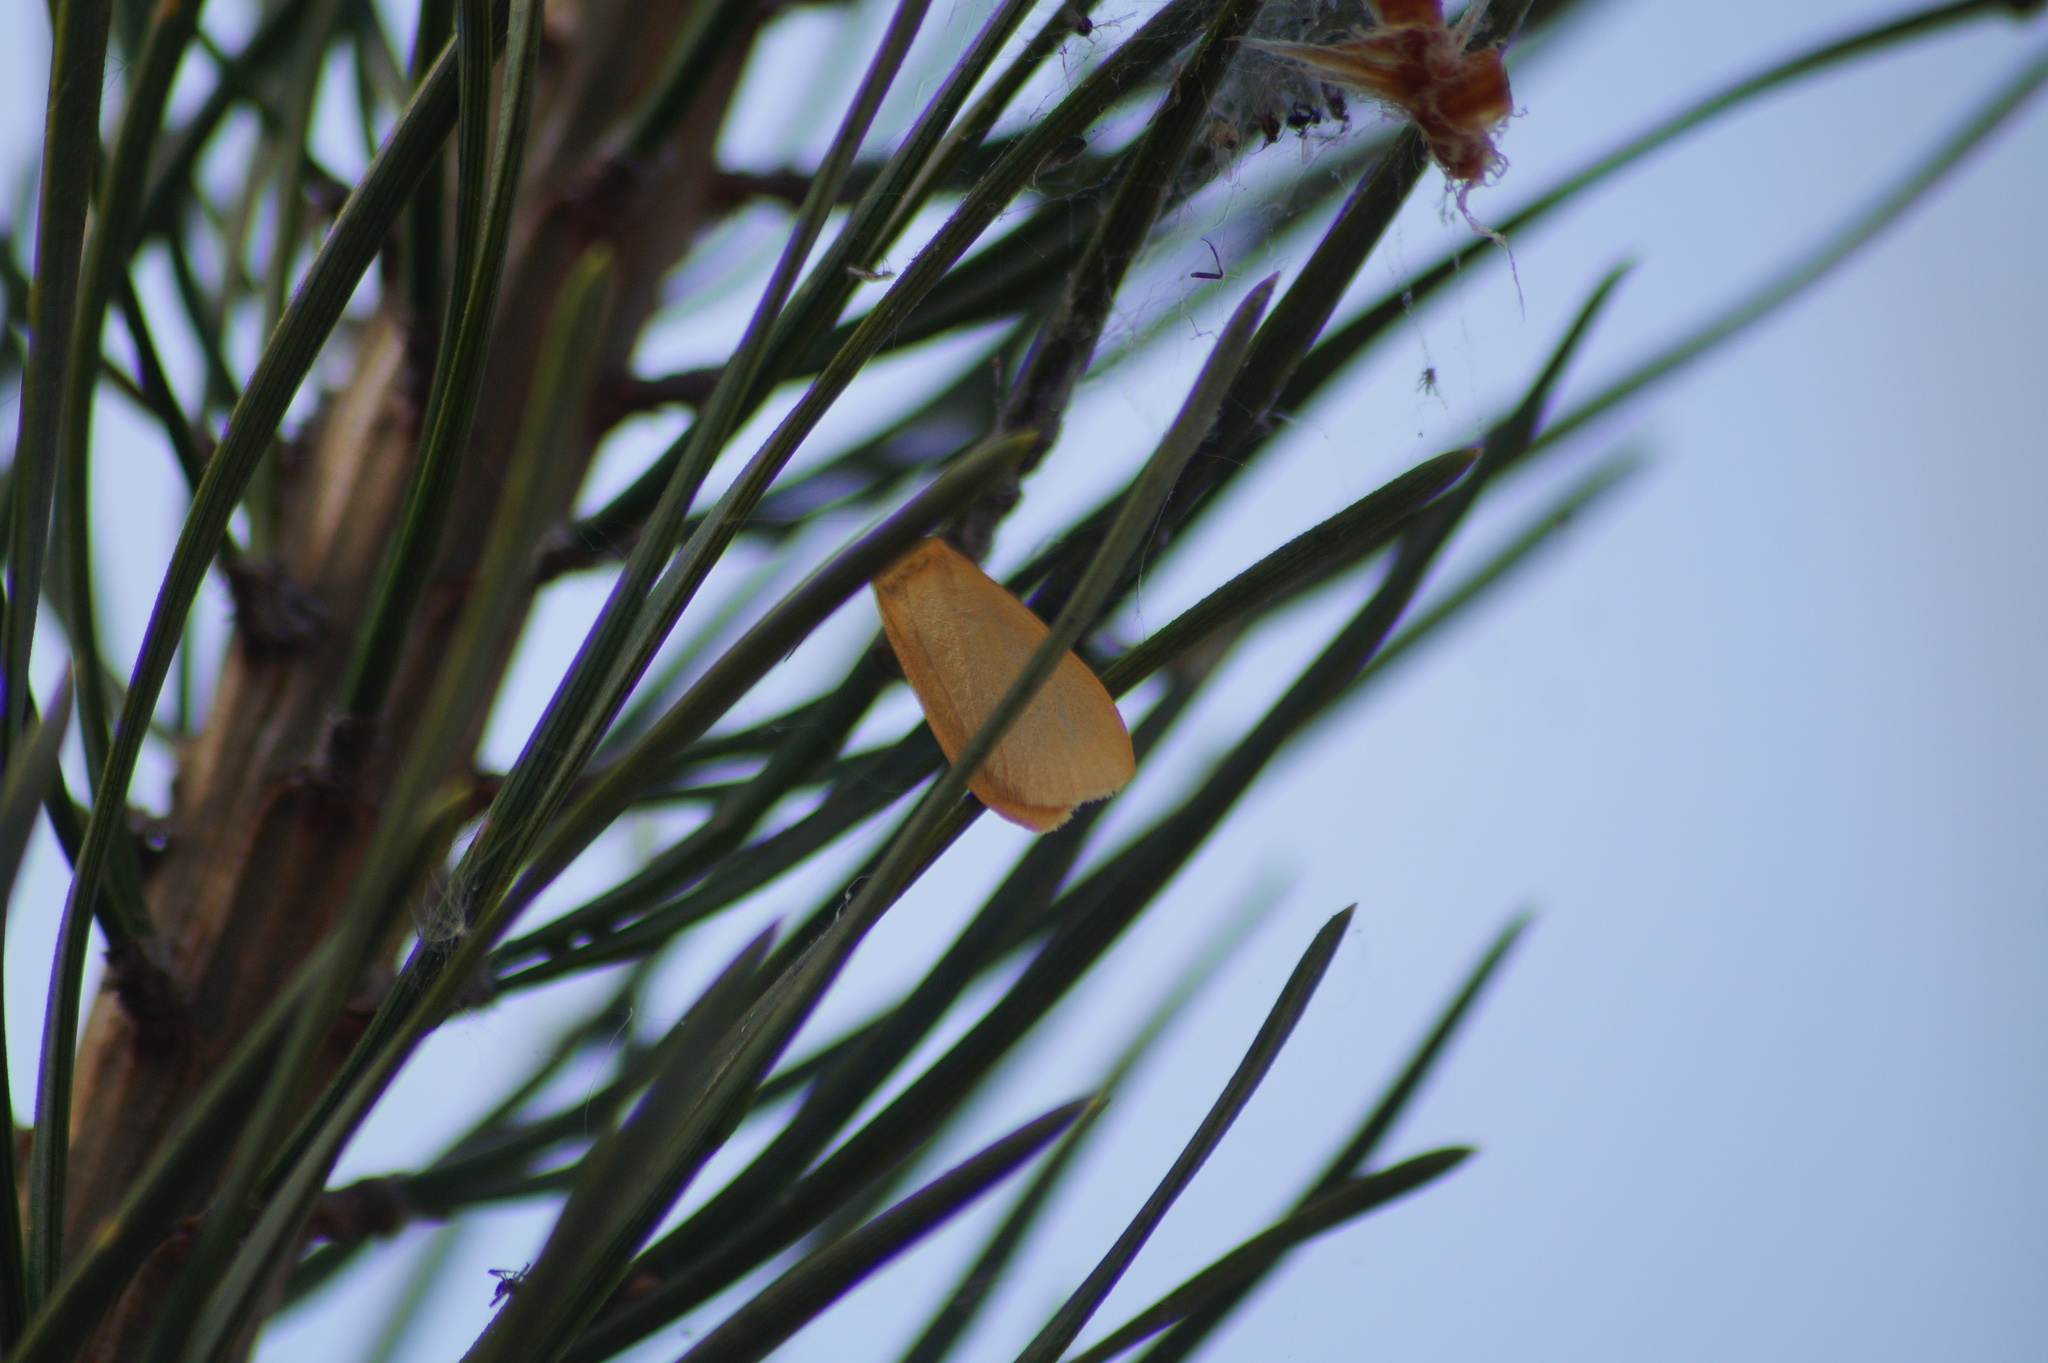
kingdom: Animalia
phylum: Arthropoda
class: Insecta
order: Lepidoptera
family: Erebidae
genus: Wittia
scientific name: Wittia sororcula
